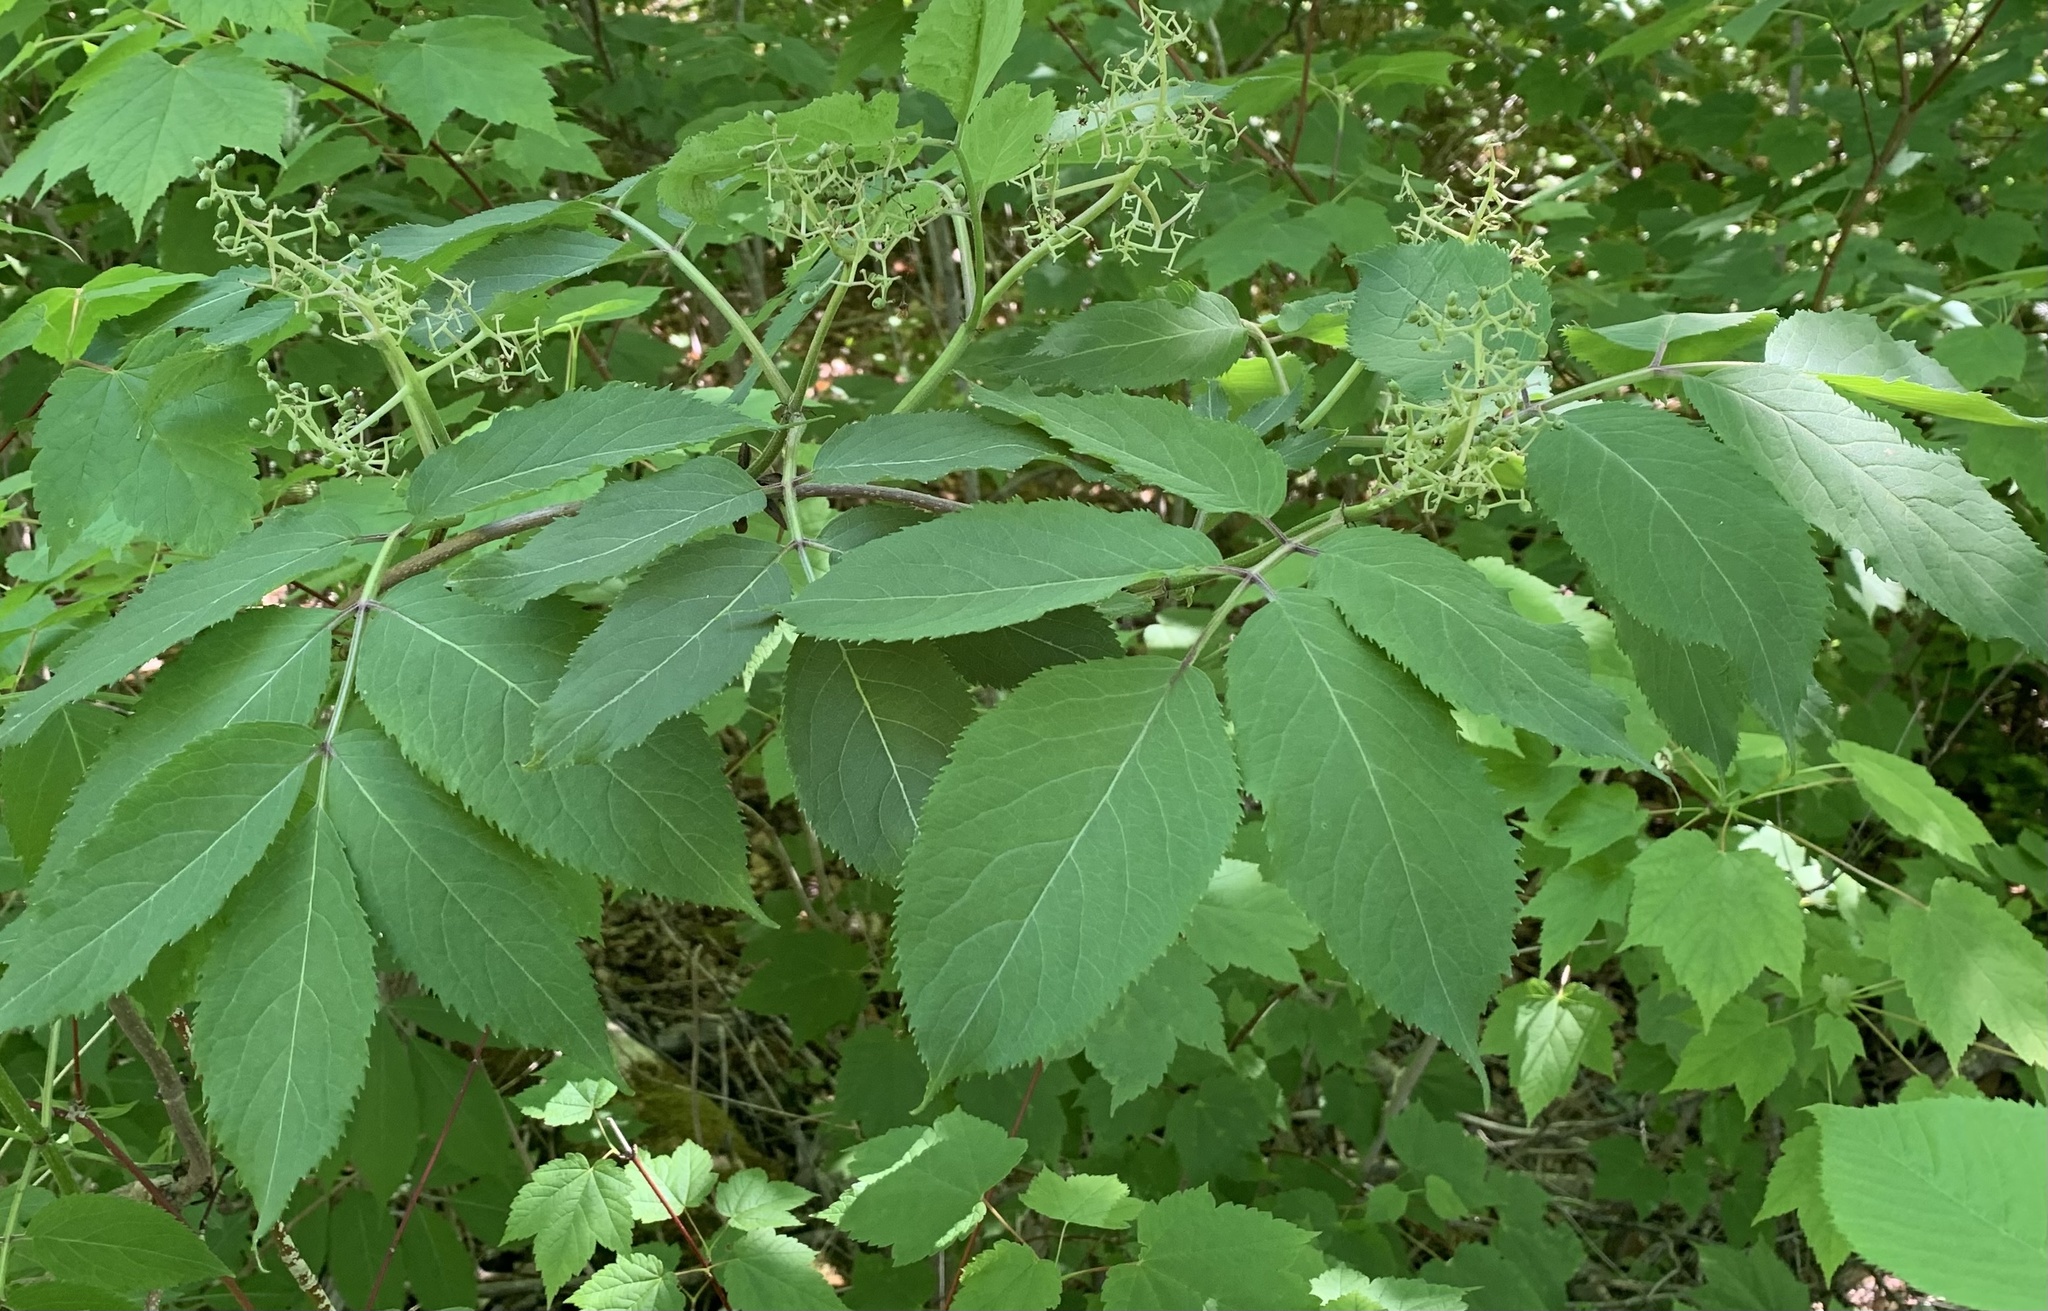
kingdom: Plantae
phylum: Tracheophyta
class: Magnoliopsida
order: Dipsacales
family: Viburnaceae
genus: Sambucus
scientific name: Sambucus racemosa
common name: Red-berried elder
